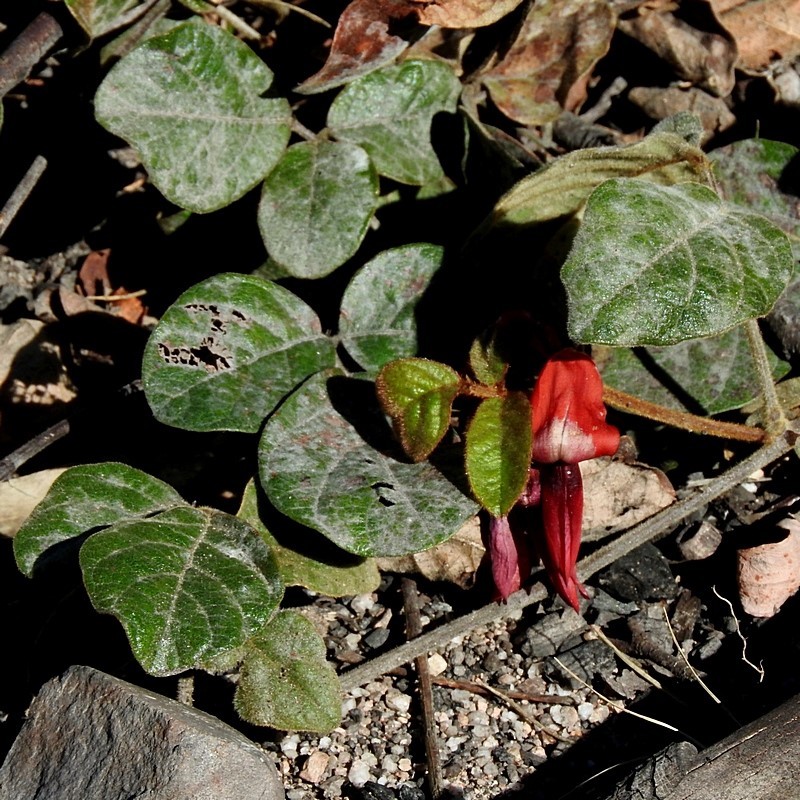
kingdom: Plantae
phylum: Tracheophyta
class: Magnoliopsida
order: Fabales
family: Fabaceae
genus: Kennedia
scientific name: Kennedia rubicunda
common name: Red kennedy-pea
